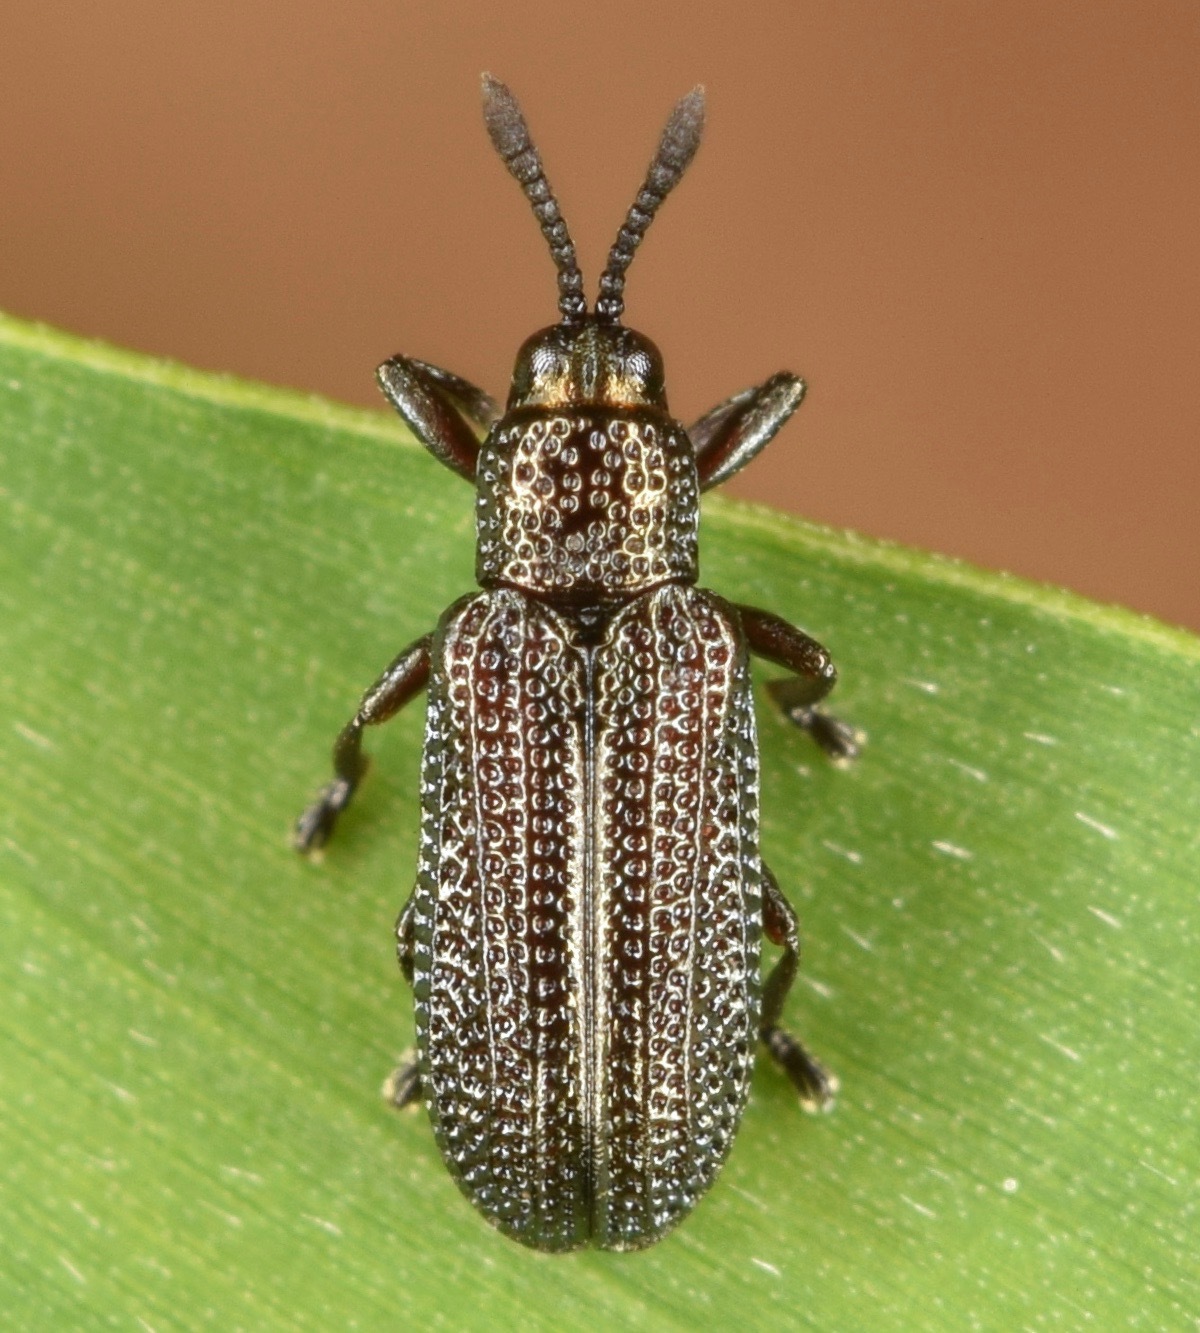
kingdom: Animalia
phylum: Arthropoda
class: Insecta
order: Coleoptera
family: Chrysomelidae
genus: Glyphuroplata
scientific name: Glyphuroplata pluto
